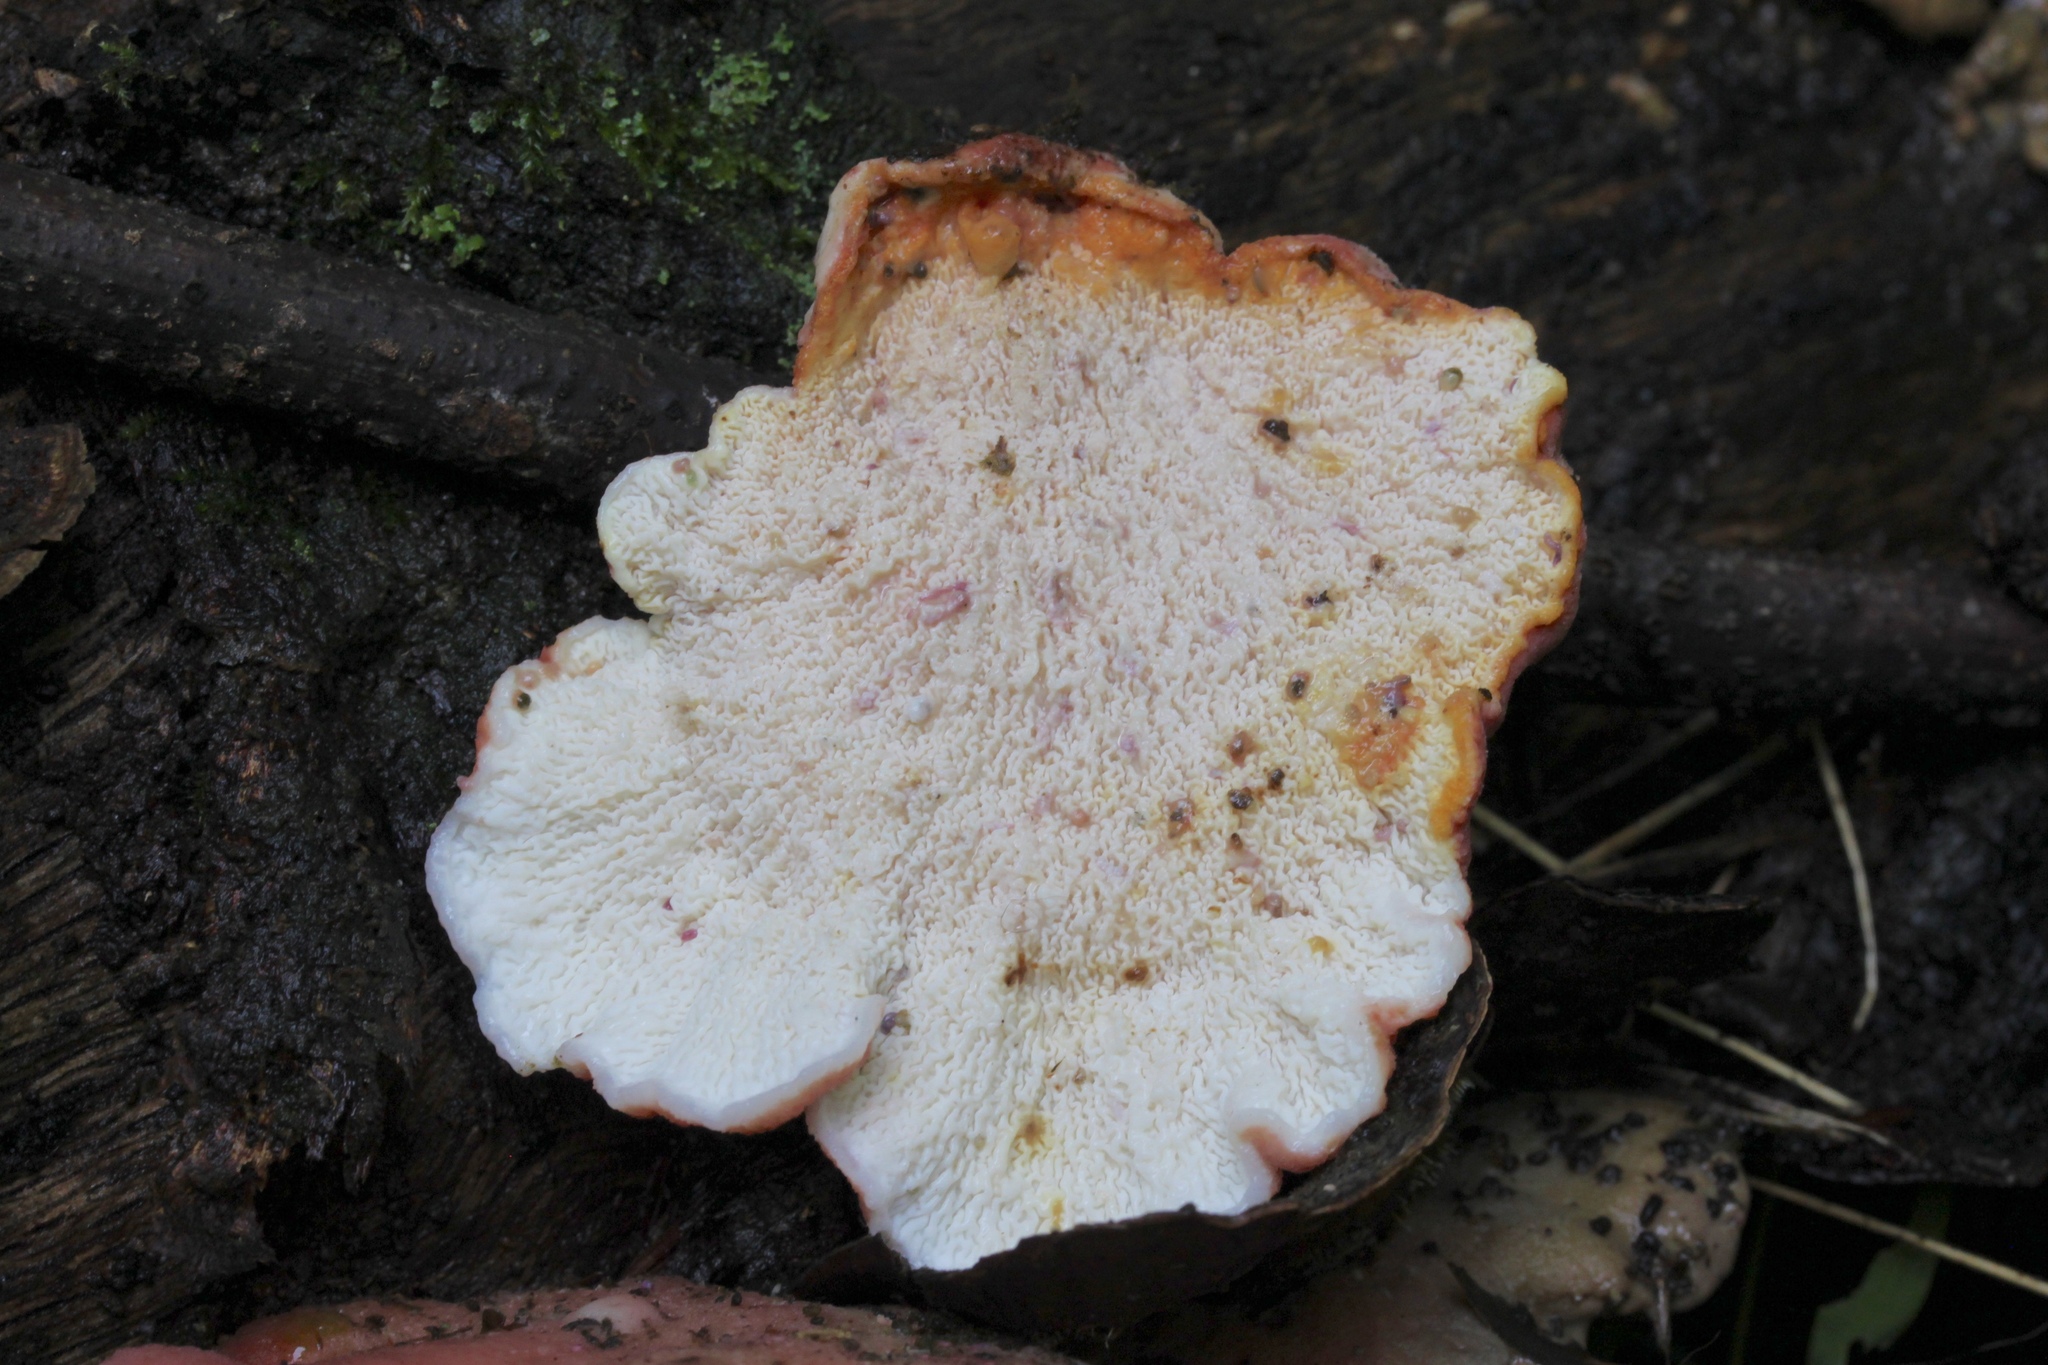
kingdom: Fungi
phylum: Basidiomycota
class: Agaricomycetes
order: Polyporales
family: Irpicaceae
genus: Byssomerulius
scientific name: Byssomerulius incarnatus
